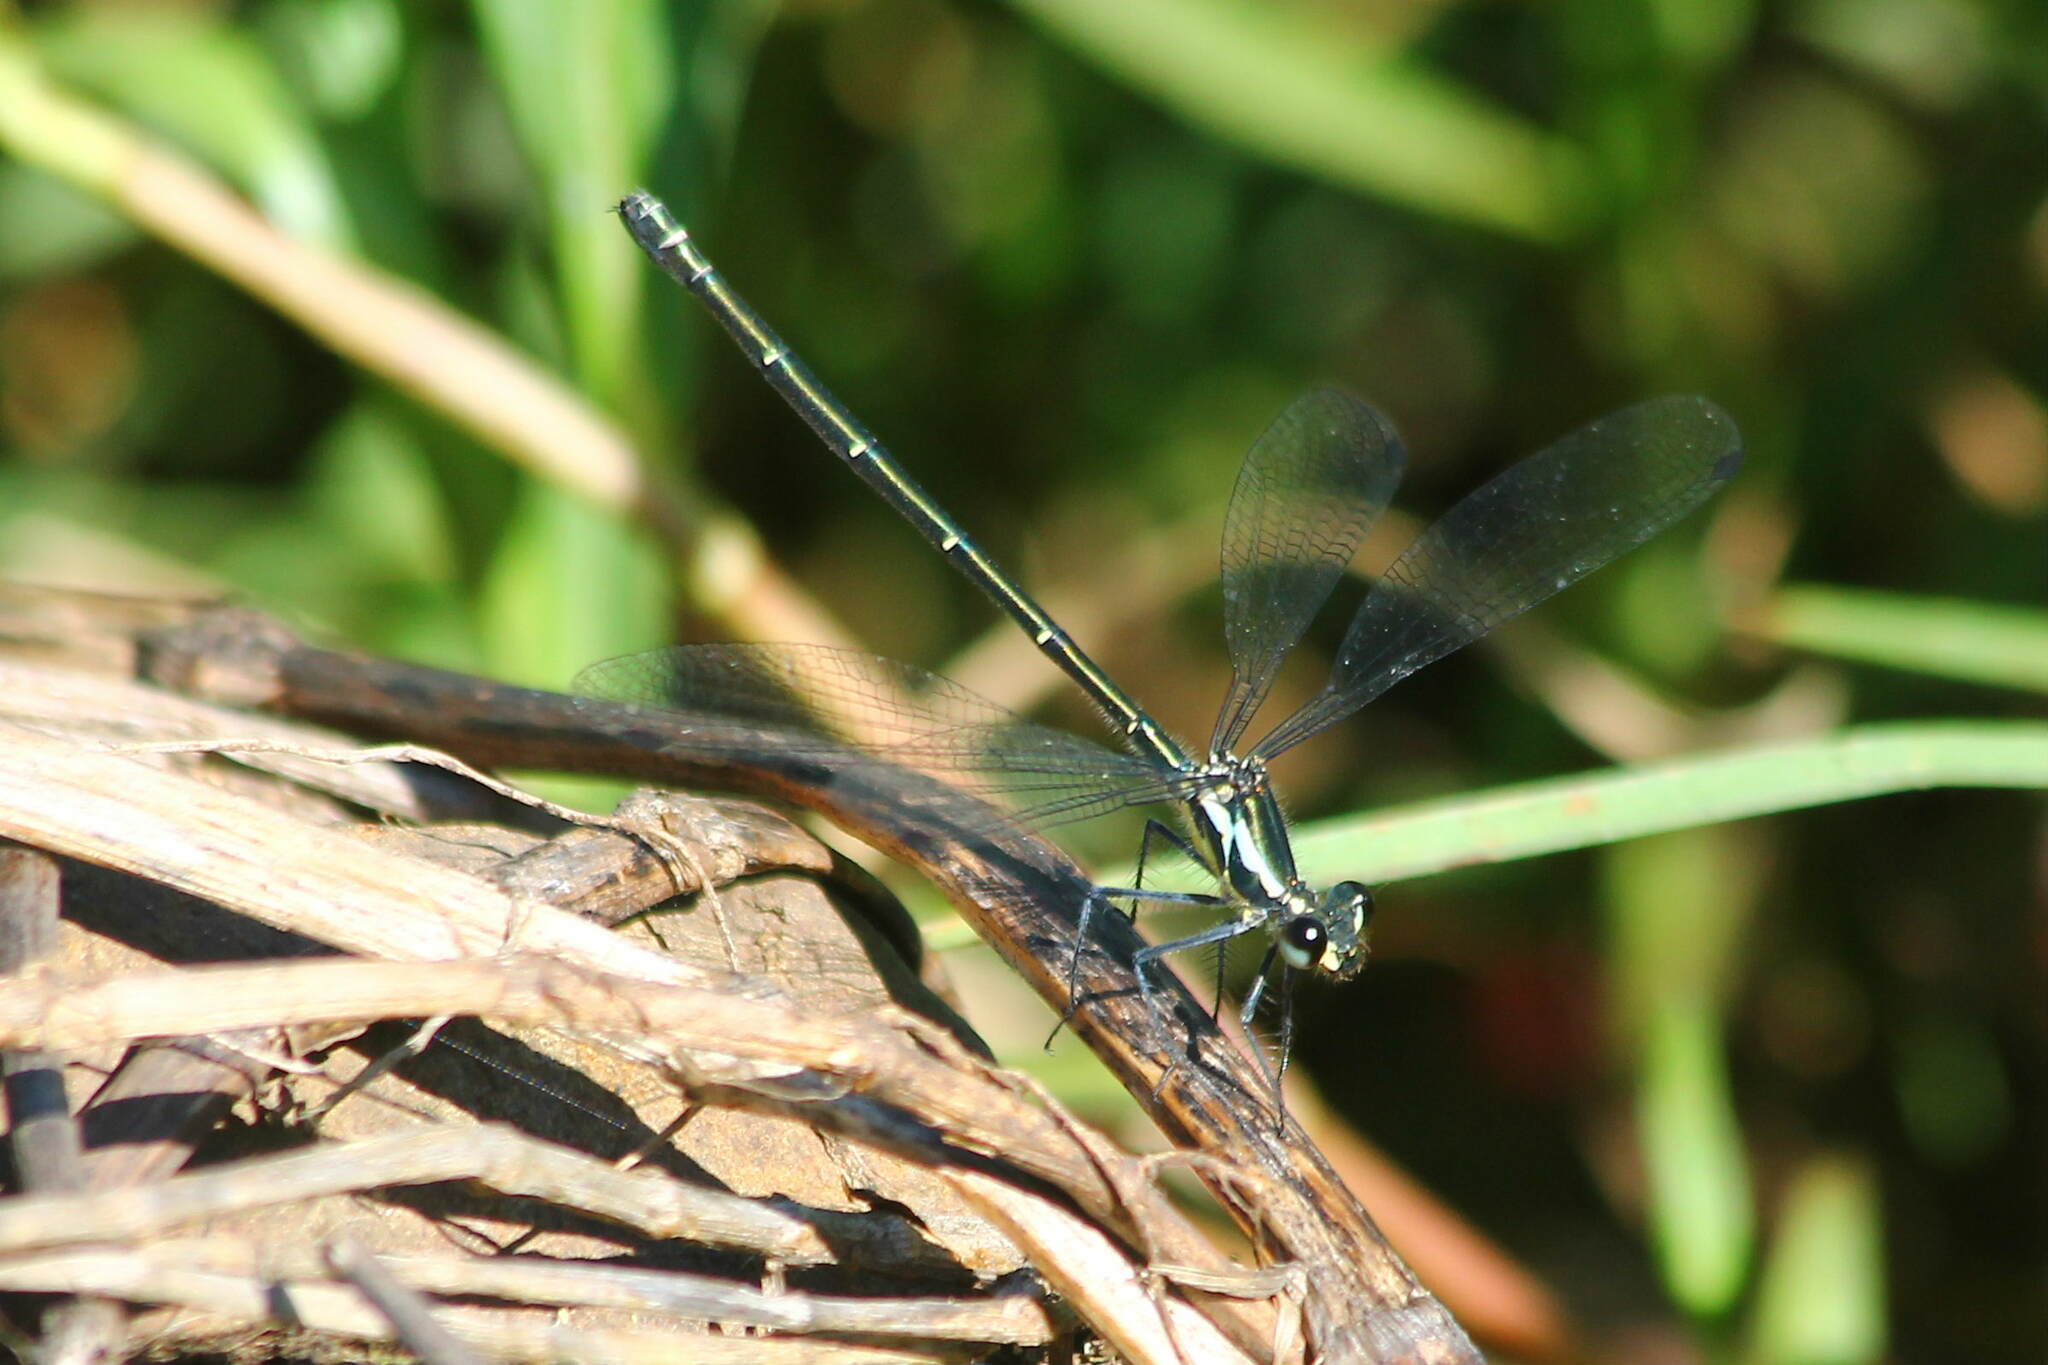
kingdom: Animalia
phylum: Arthropoda
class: Insecta
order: Odonata
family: Argiolestidae
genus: Austroargiolestes
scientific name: Austroargiolestes icteromelas
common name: Common flatwing
